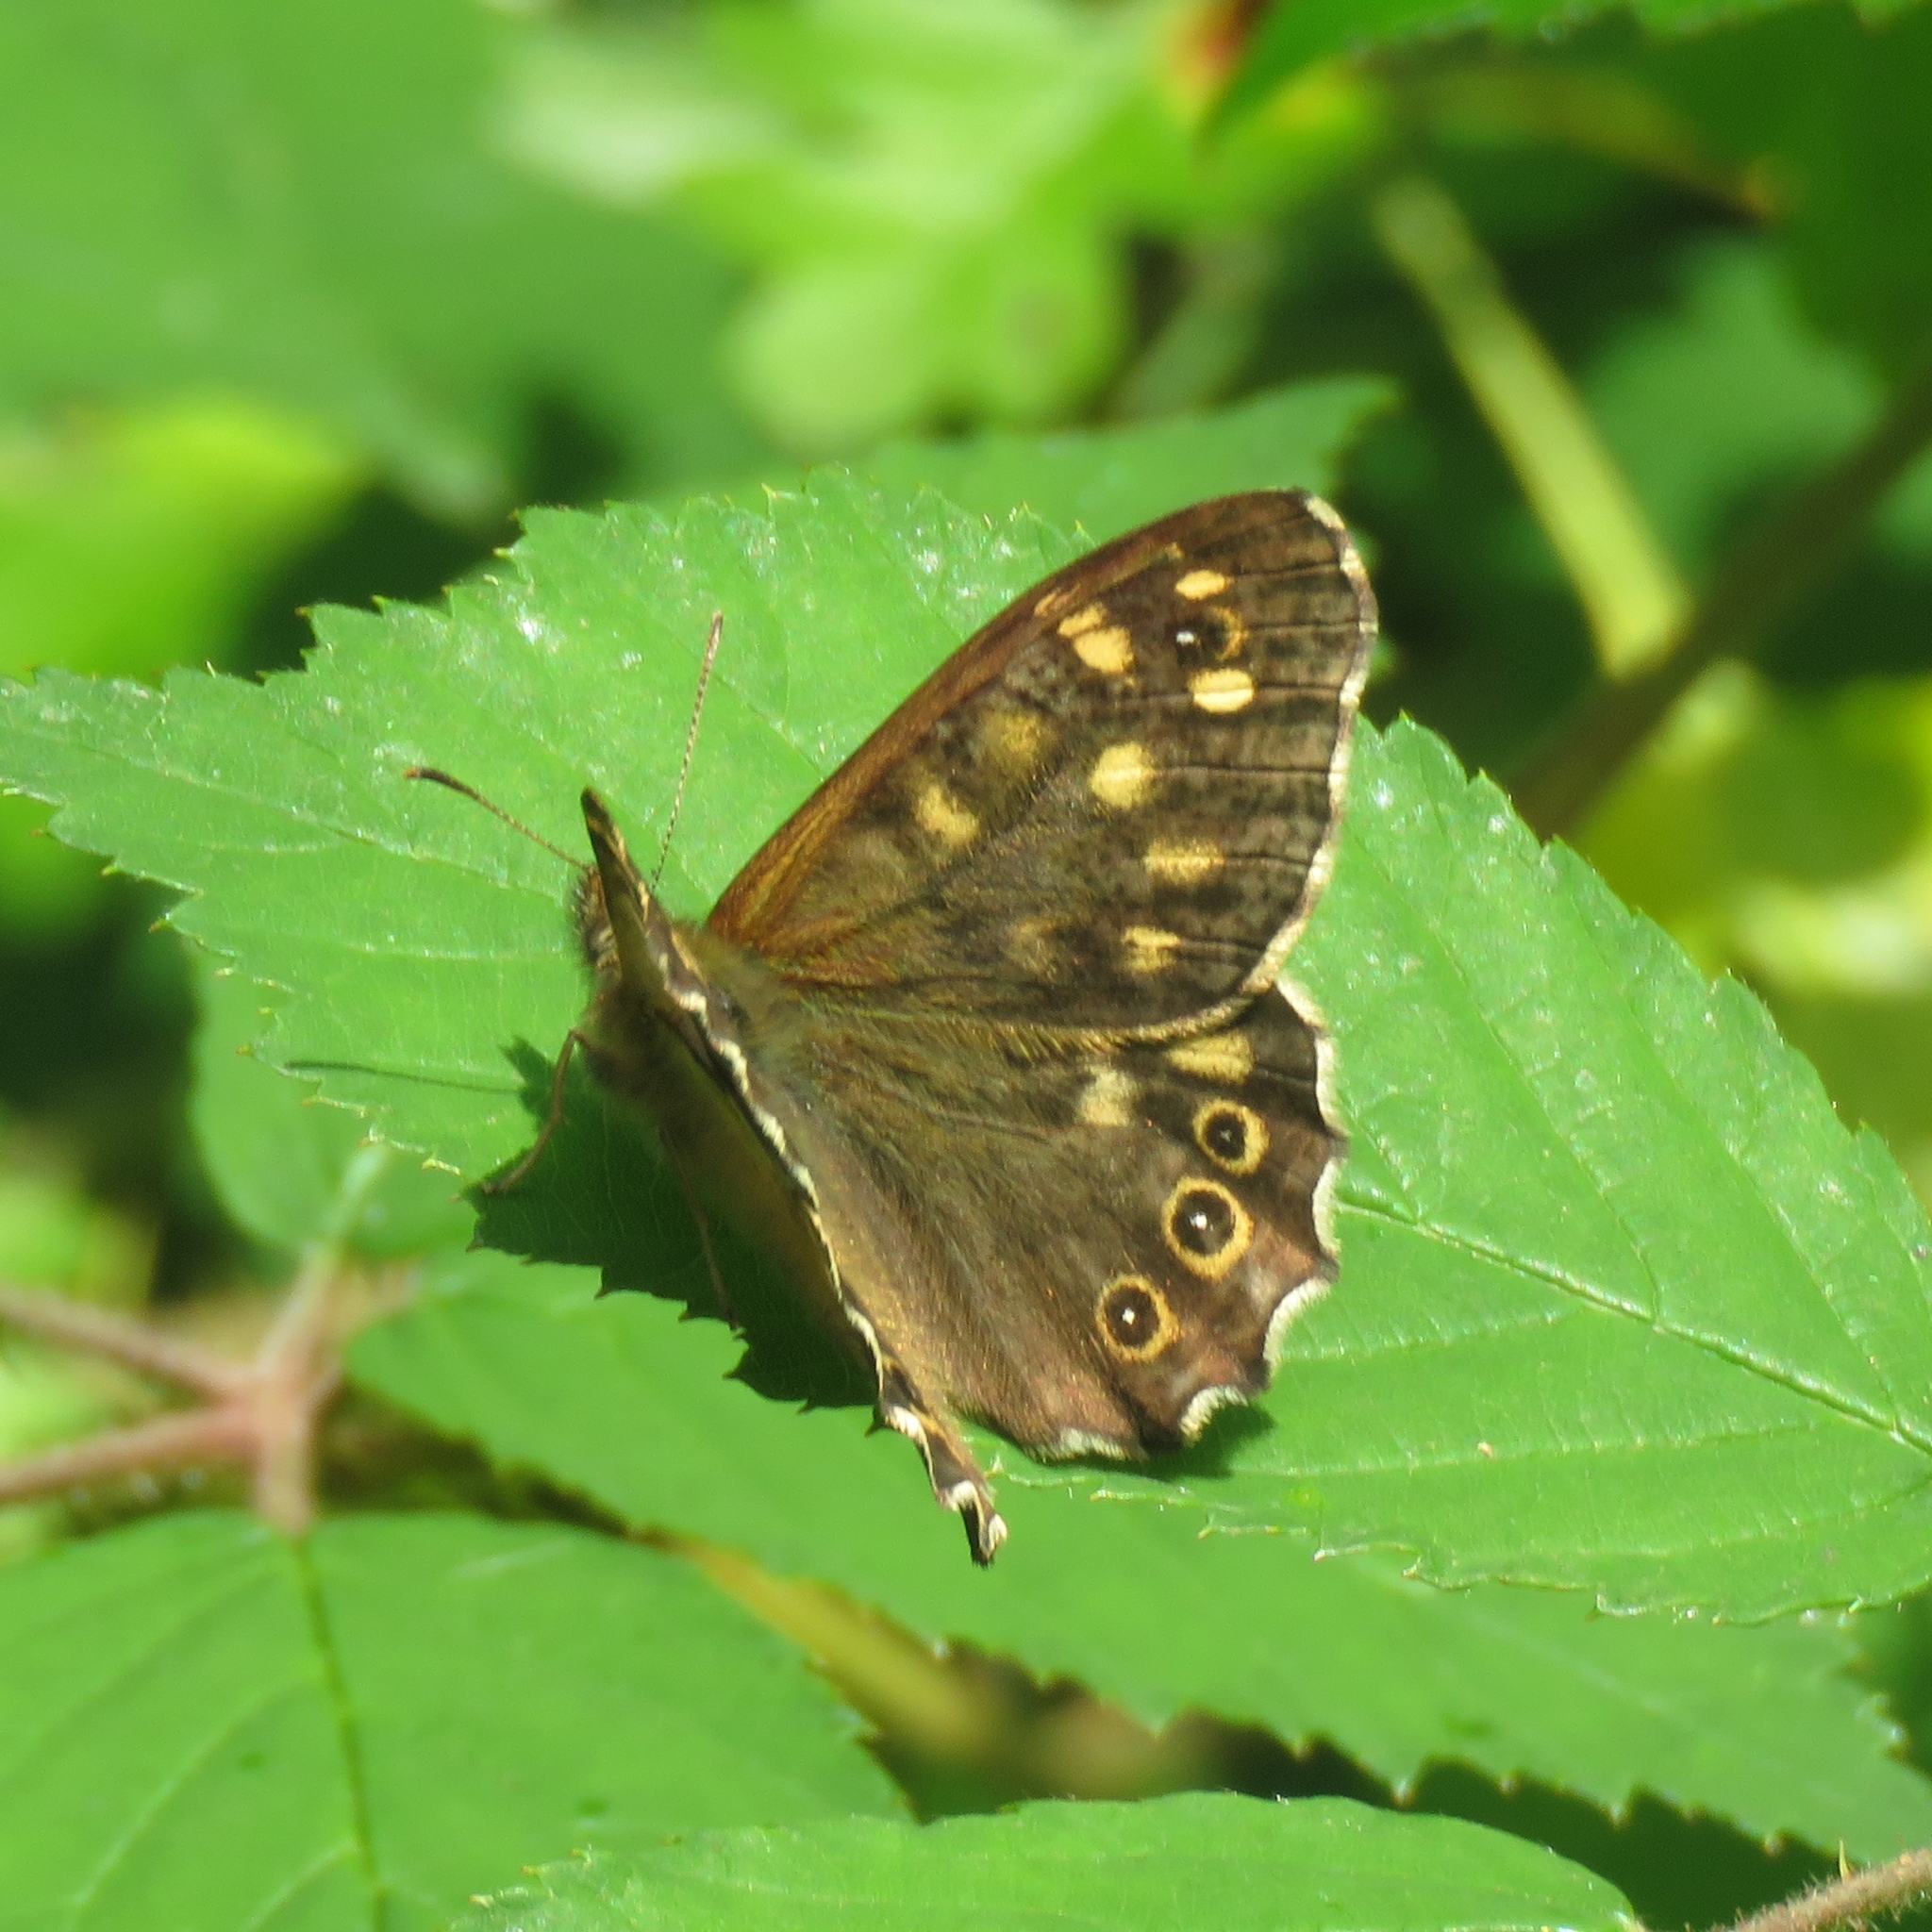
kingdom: Animalia
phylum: Arthropoda
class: Insecta
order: Lepidoptera
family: Nymphalidae
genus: Pararge
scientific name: Pararge aegeria
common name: Speckled wood
